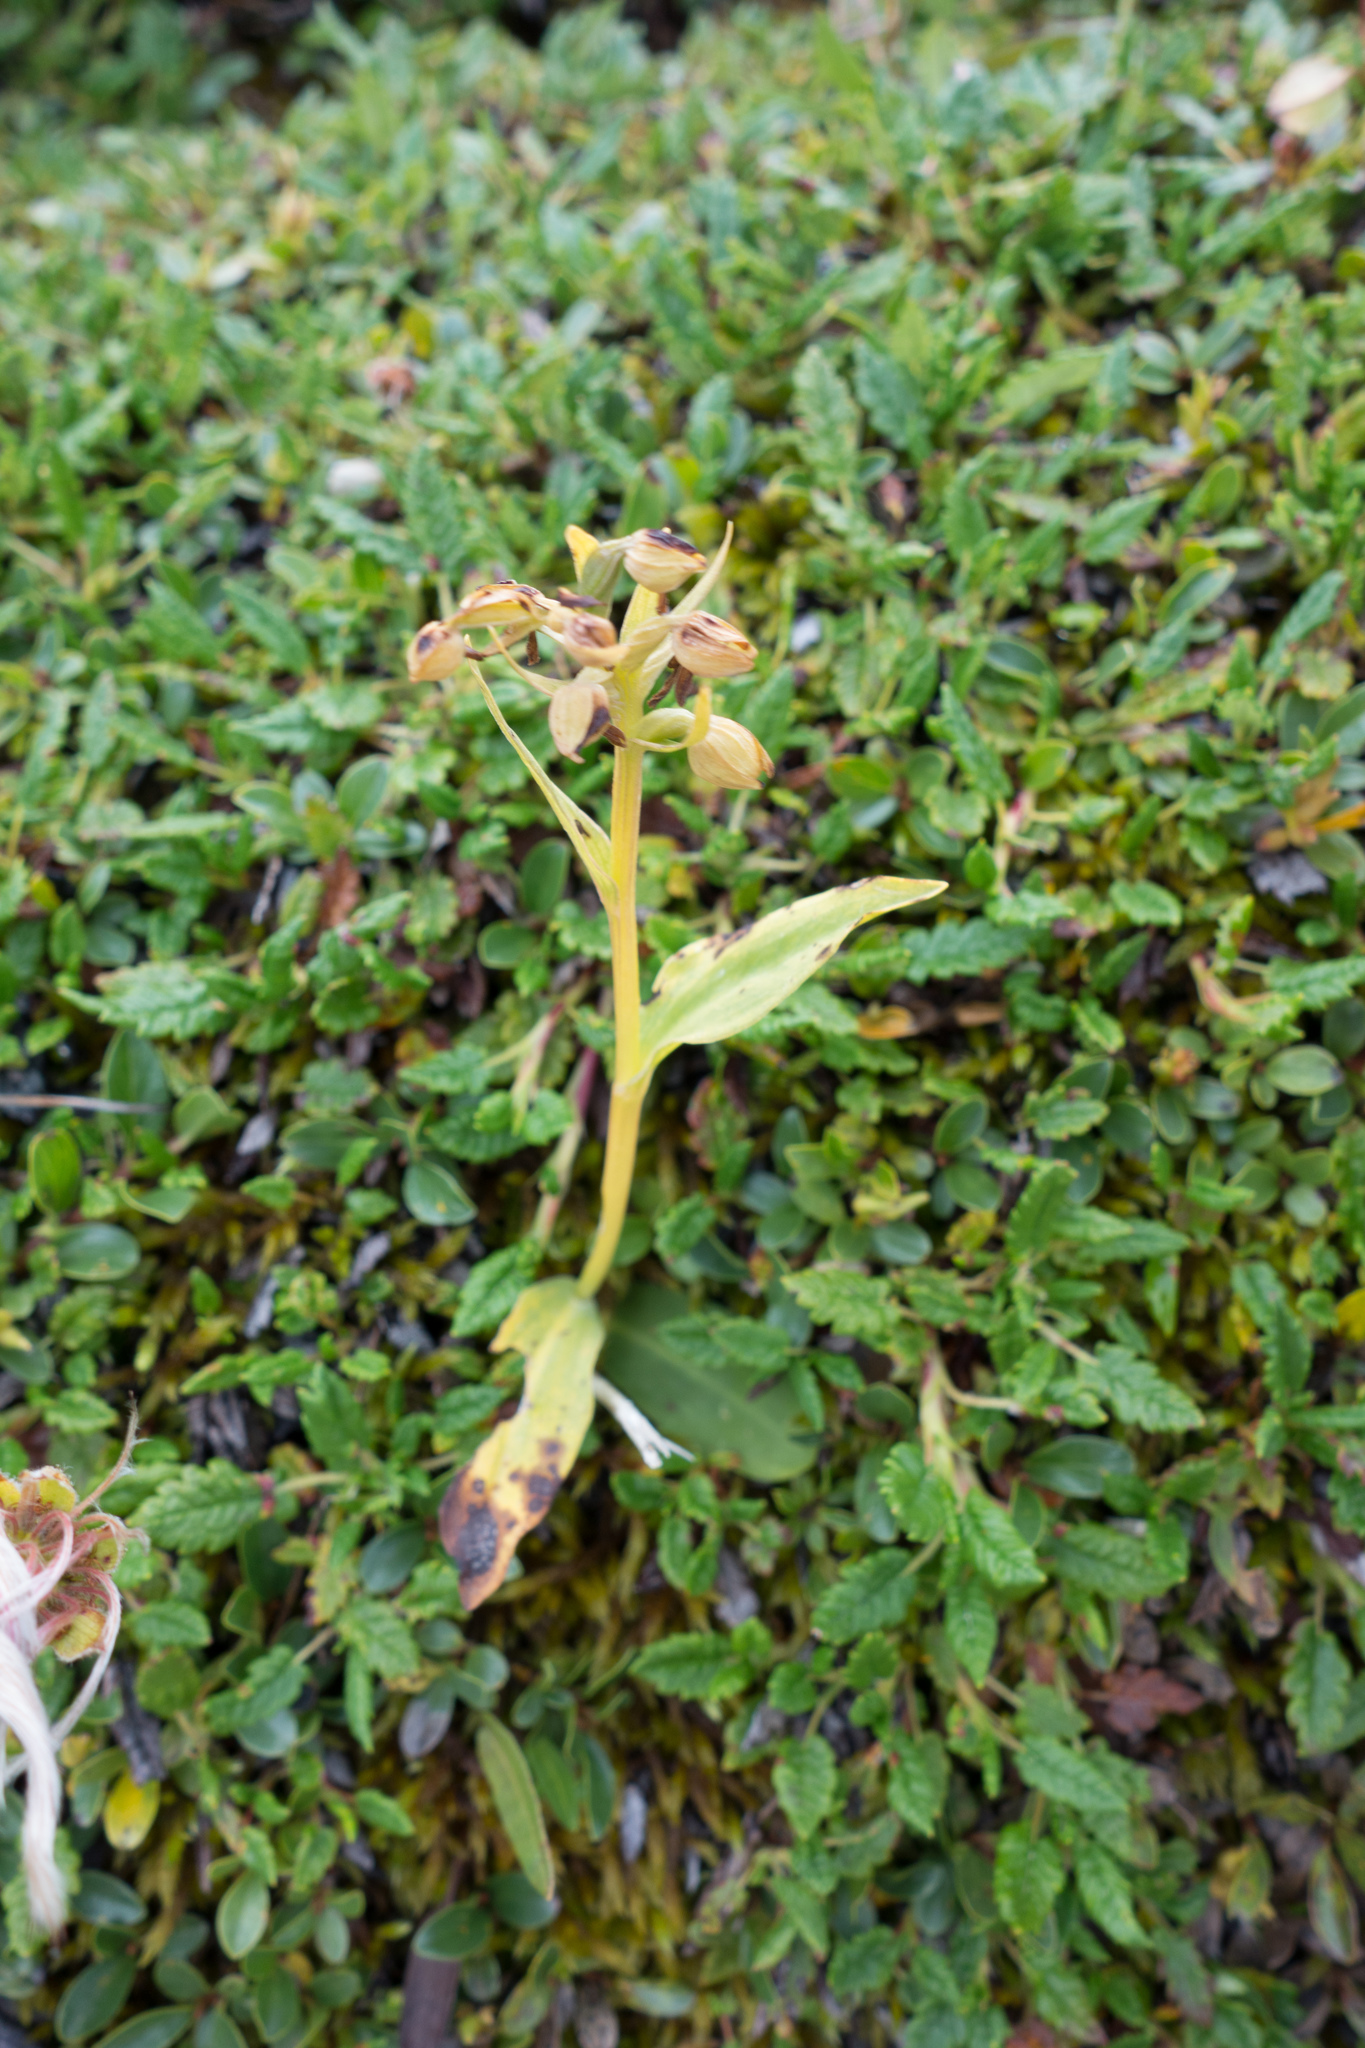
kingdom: Plantae
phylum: Tracheophyta
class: Liliopsida
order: Asparagales
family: Orchidaceae
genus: Dactylorhiza
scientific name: Dactylorhiza viridis
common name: Longbract frog orchid
